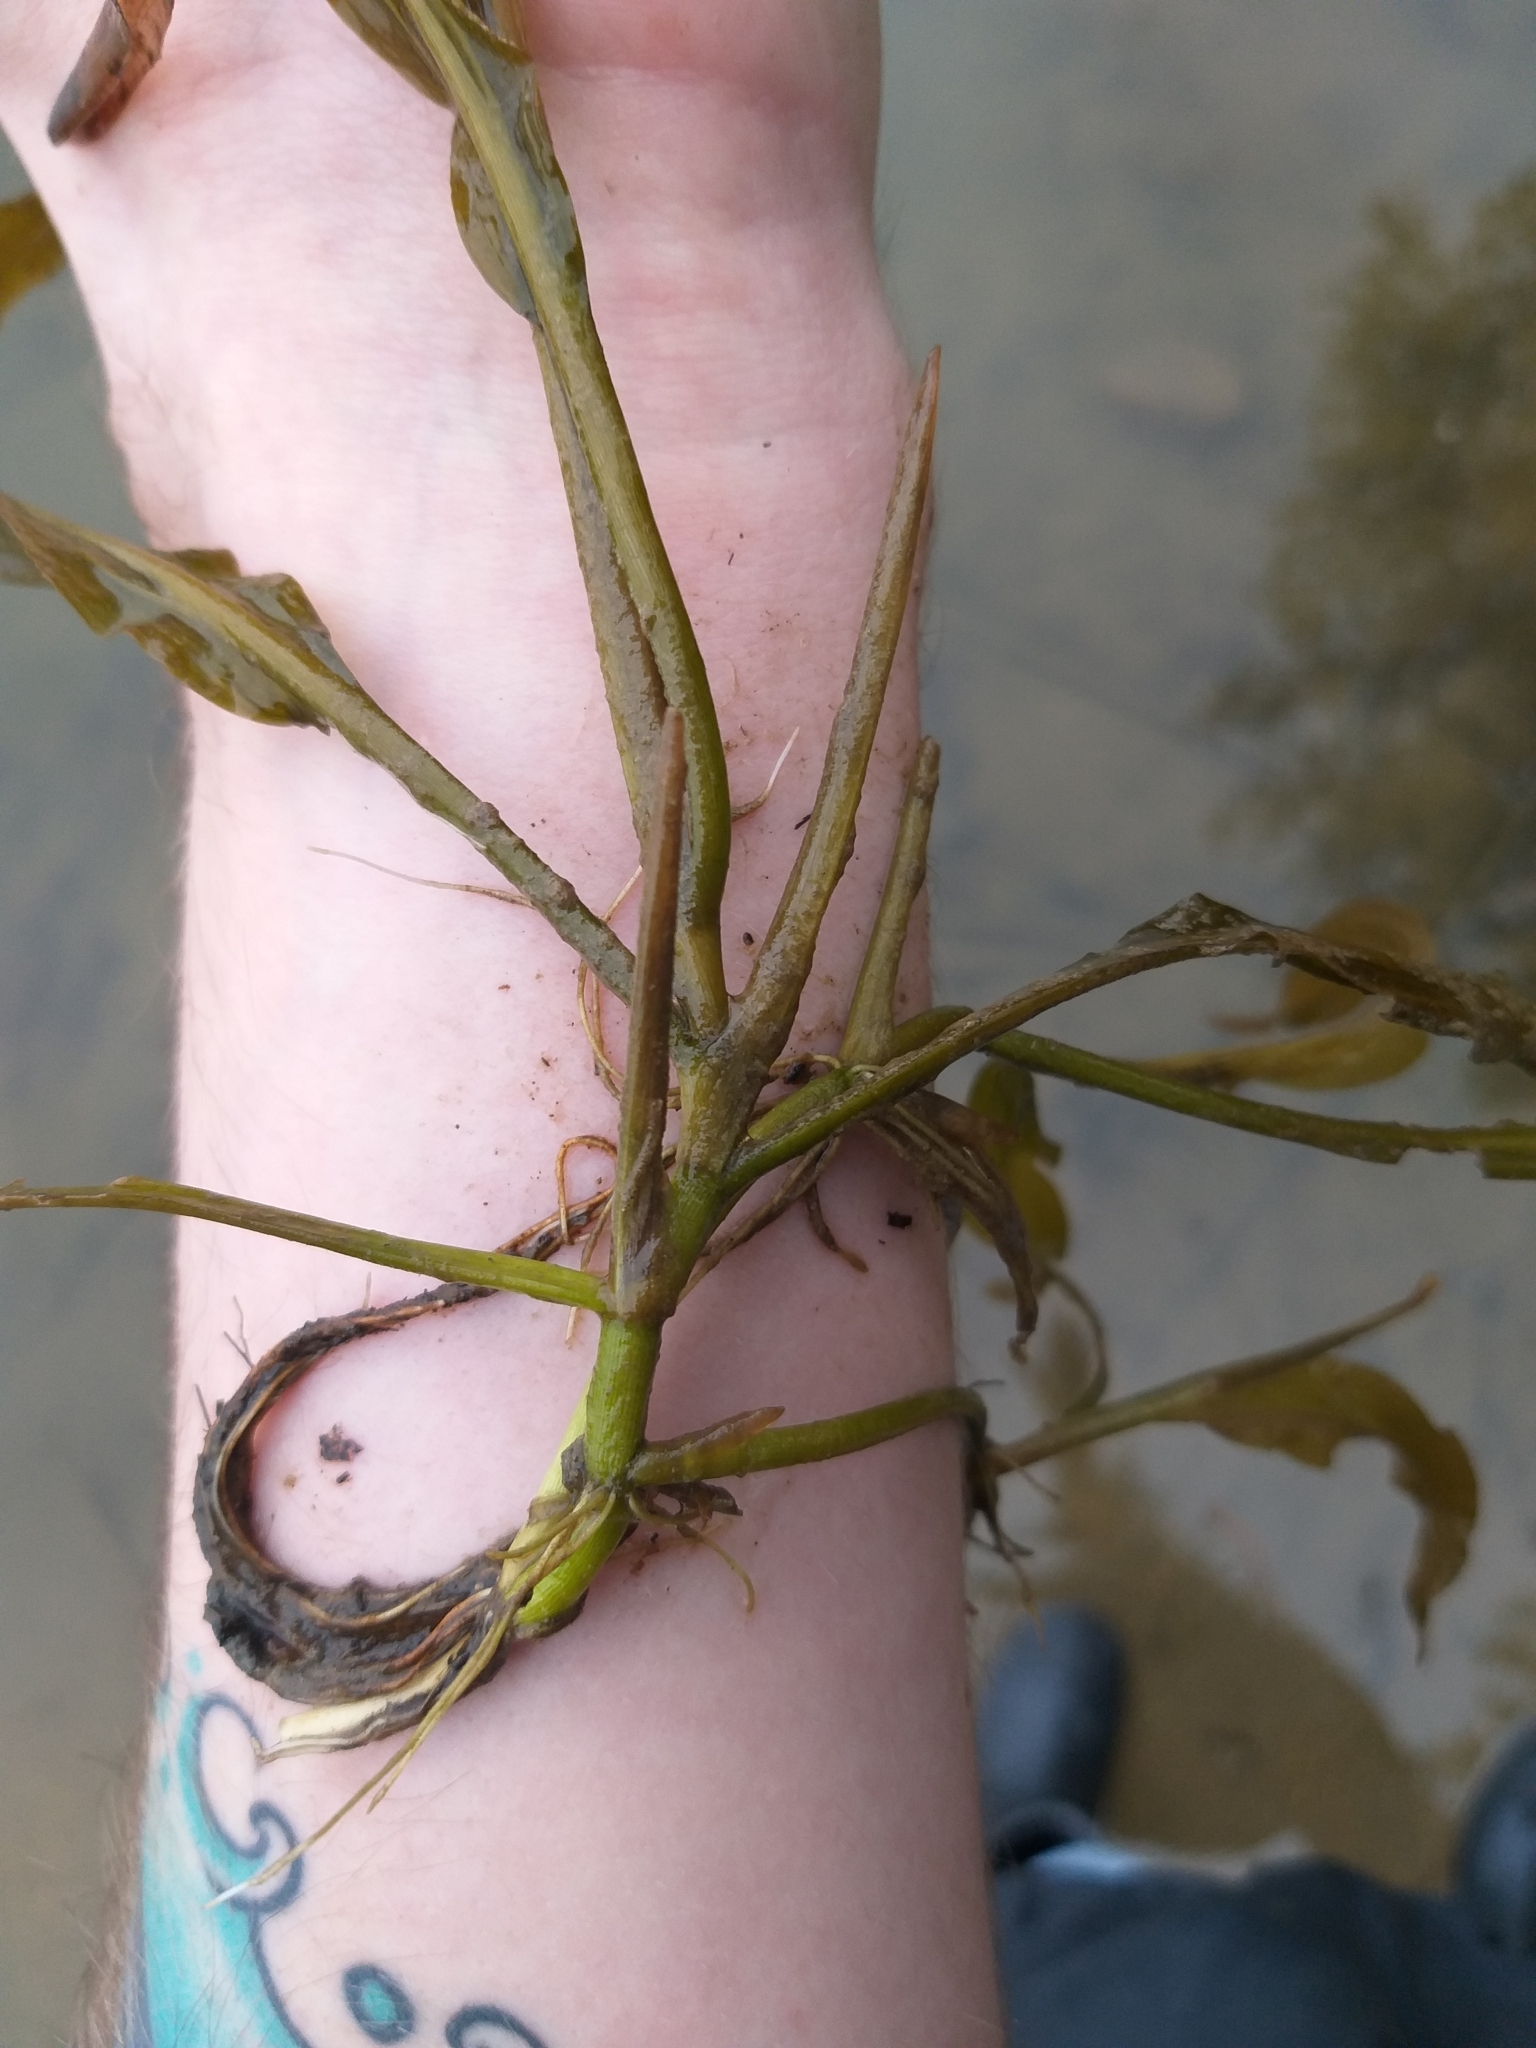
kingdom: Plantae
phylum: Tracheophyta
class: Liliopsida
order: Alismatales
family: Potamogetonaceae
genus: Potamogeton
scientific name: Potamogeton illinoensis
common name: Illinois pondweed
